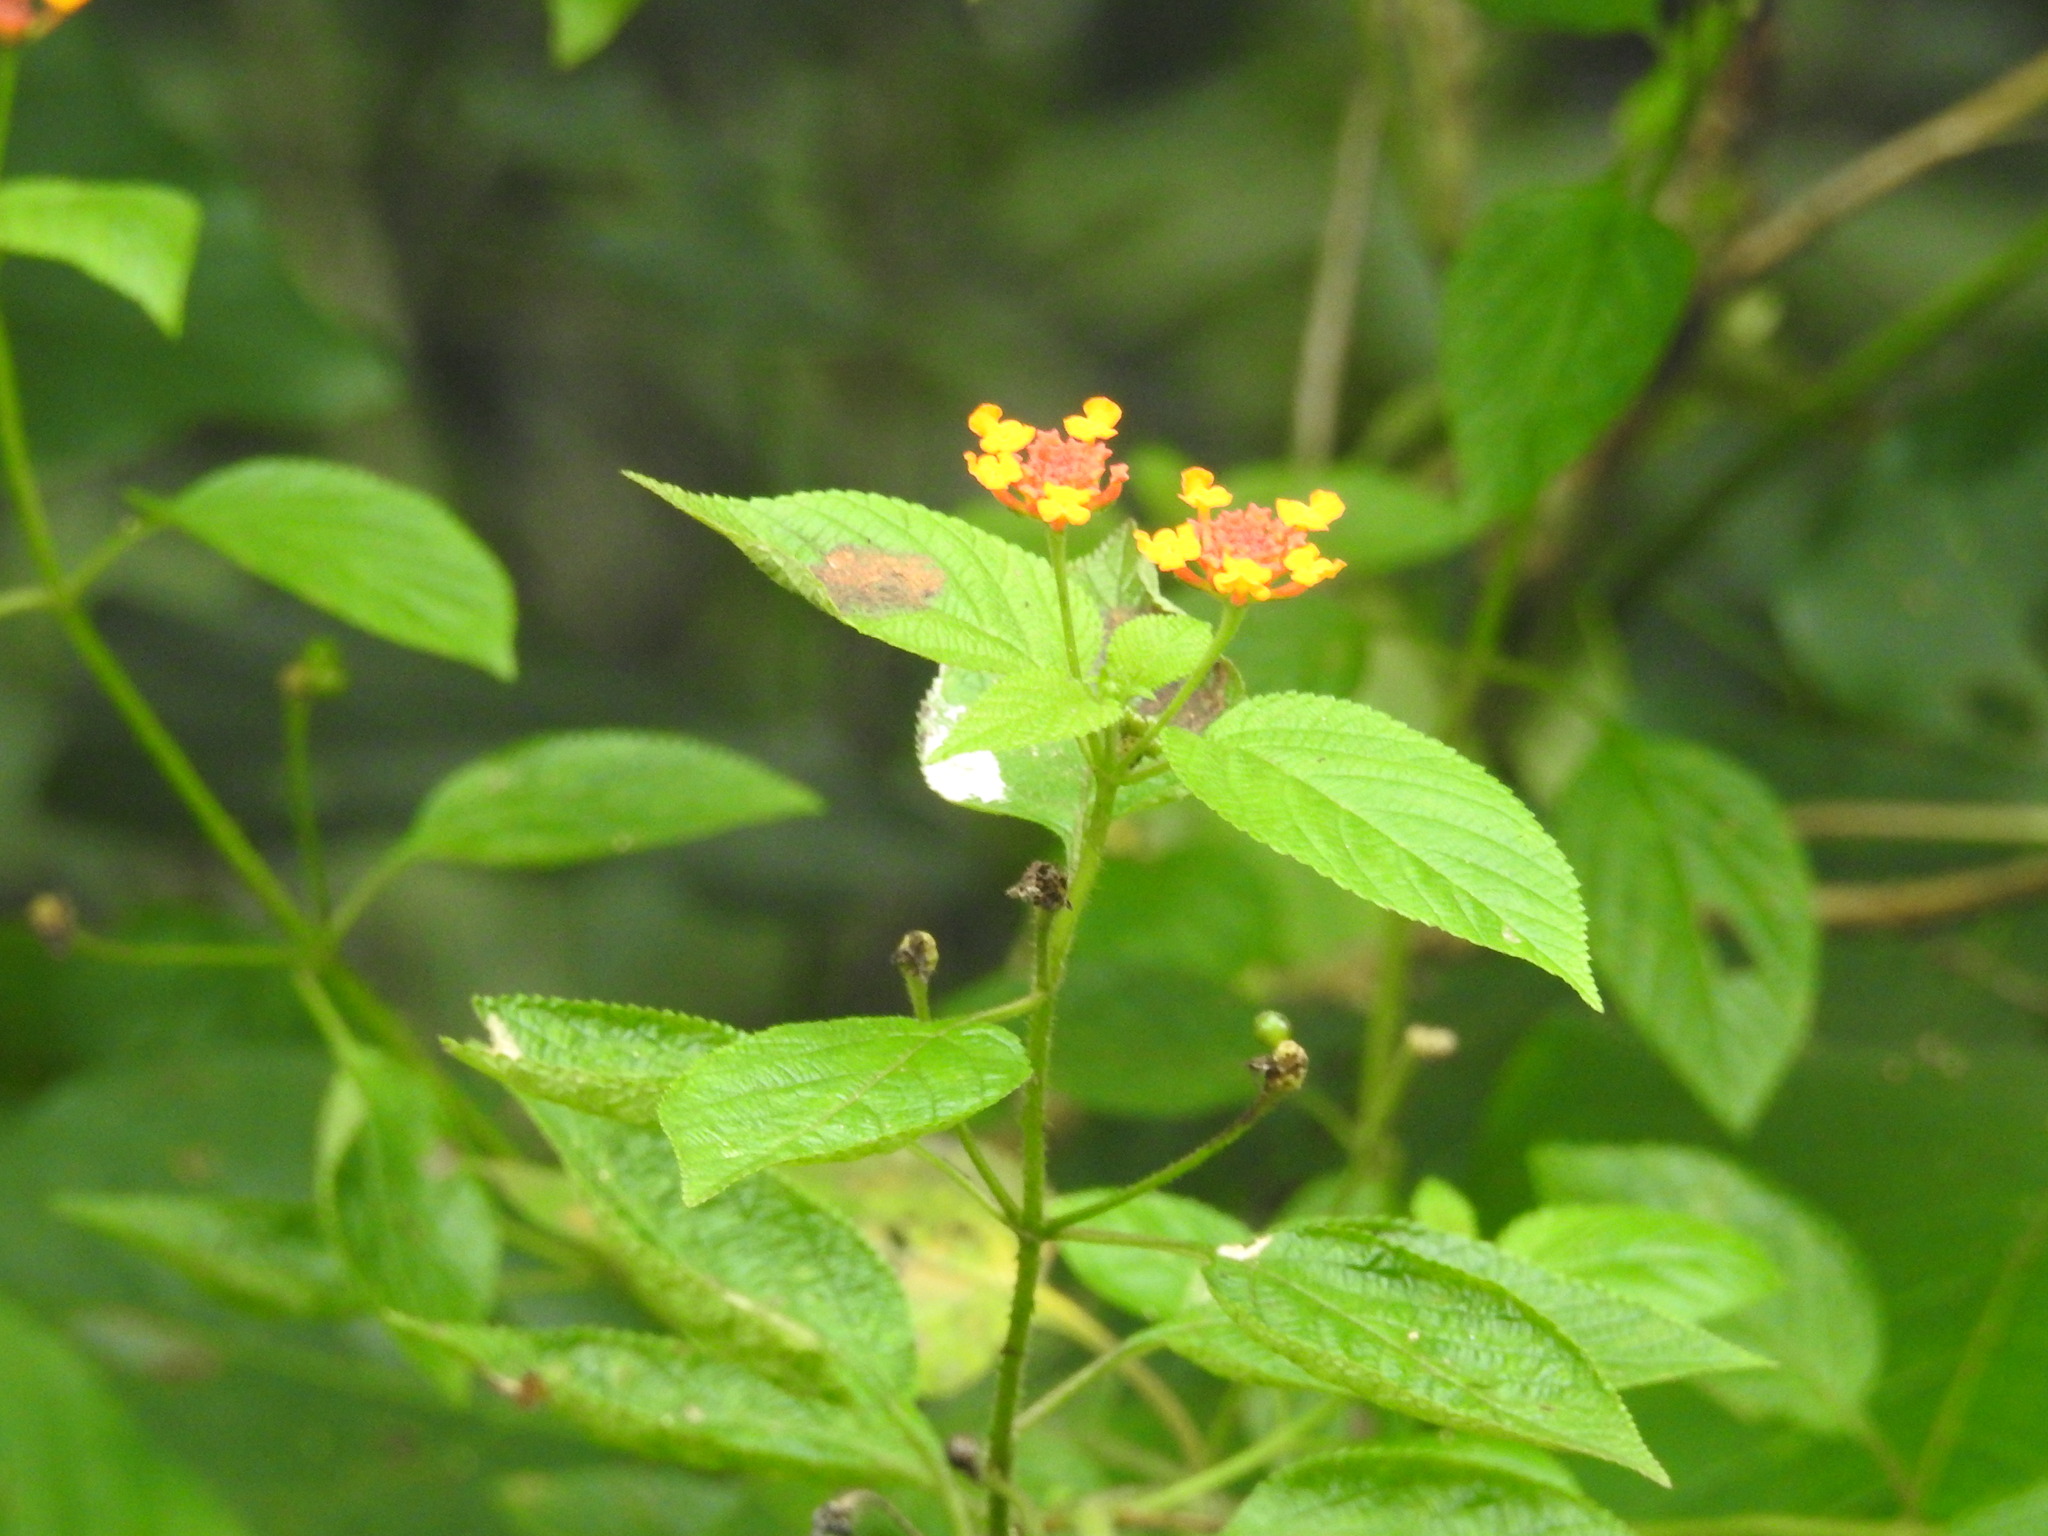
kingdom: Plantae
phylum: Tracheophyta
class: Magnoliopsida
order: Lamiales
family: Verbenaceae
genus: Lantana
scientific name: Lantana camara
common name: Lantana
